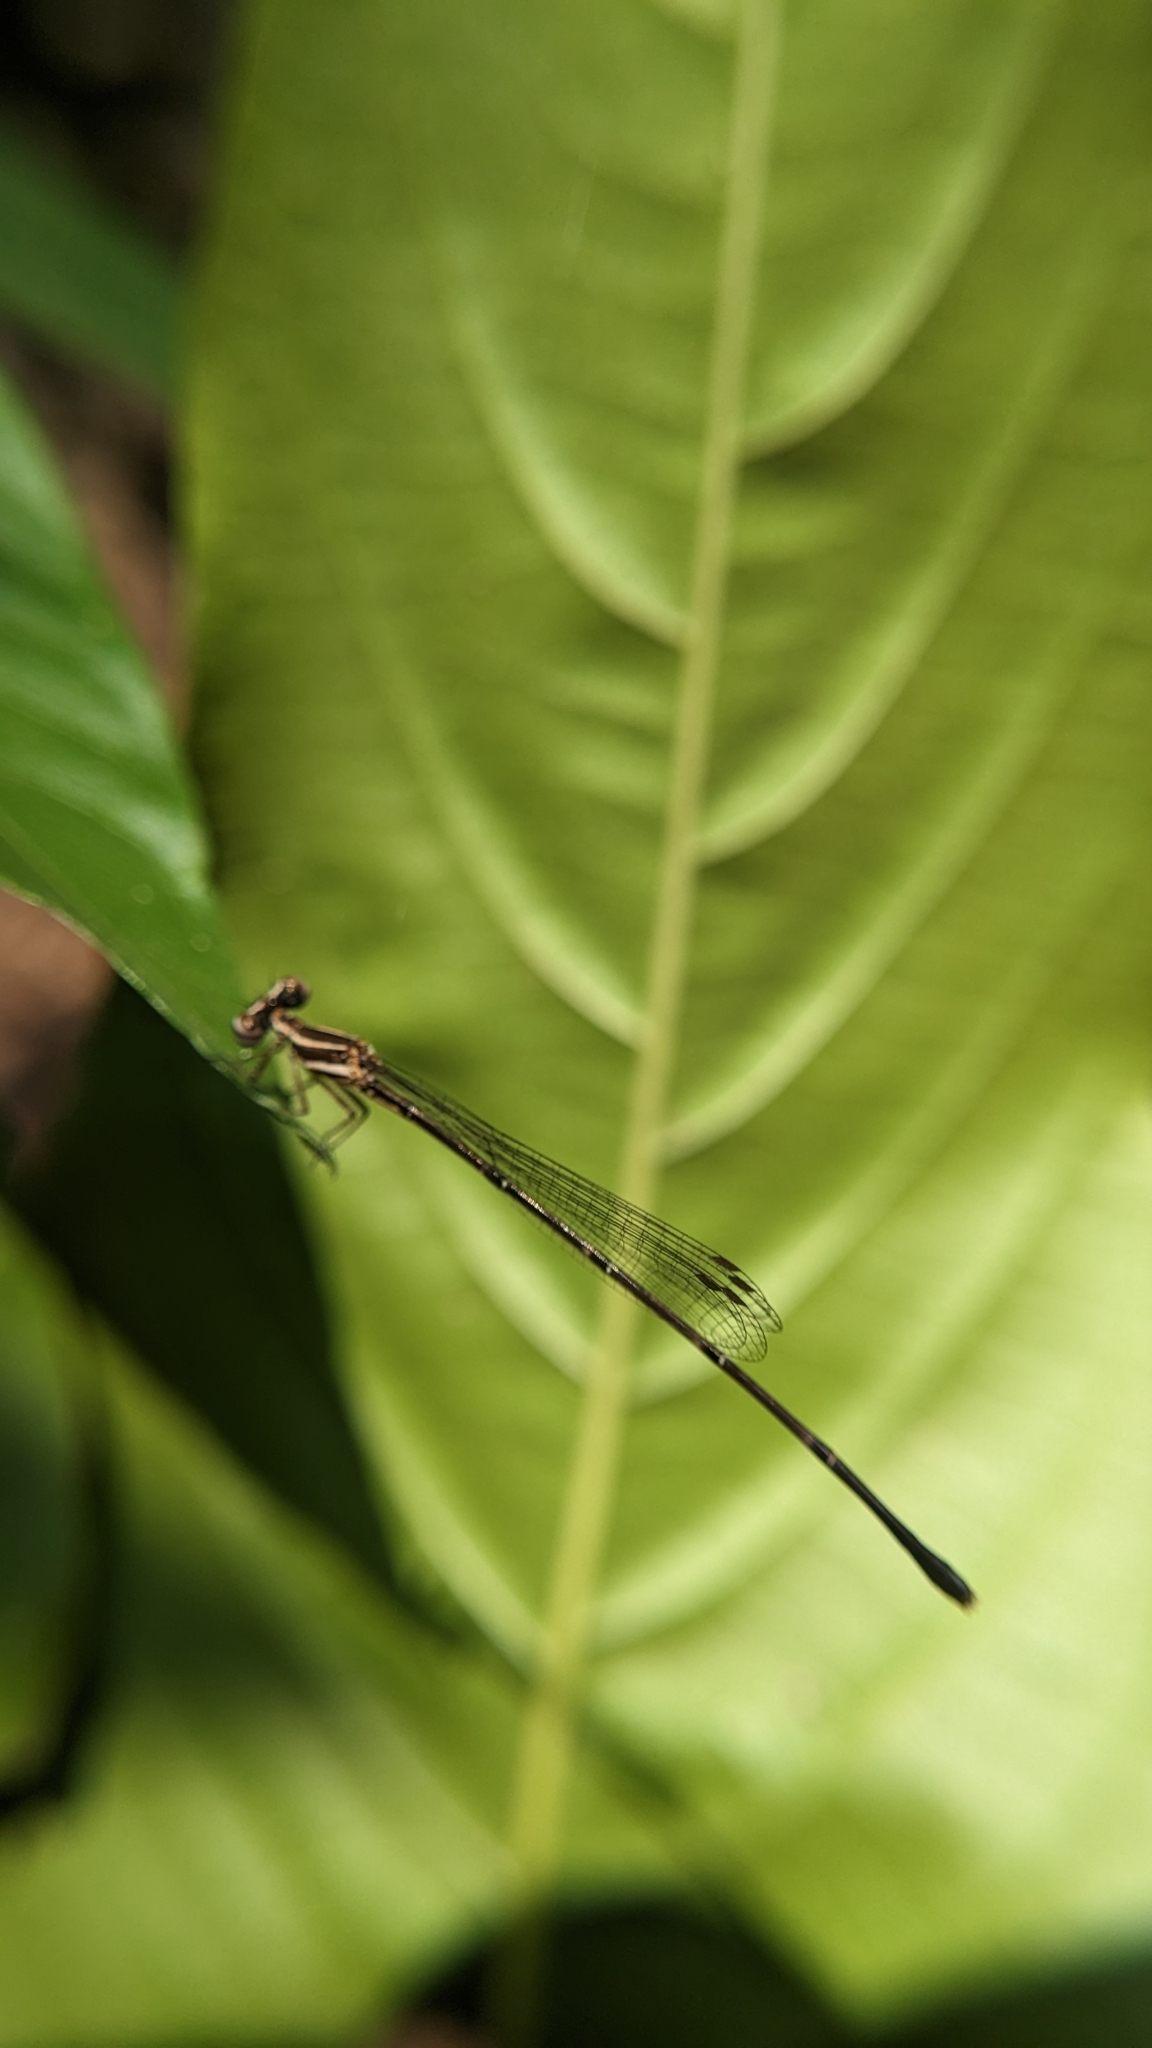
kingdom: Animalia
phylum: Arthropoda
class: Insecta
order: Odonata
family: Platycnemididae
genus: Prodasineura
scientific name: Prodasineura verticalis
